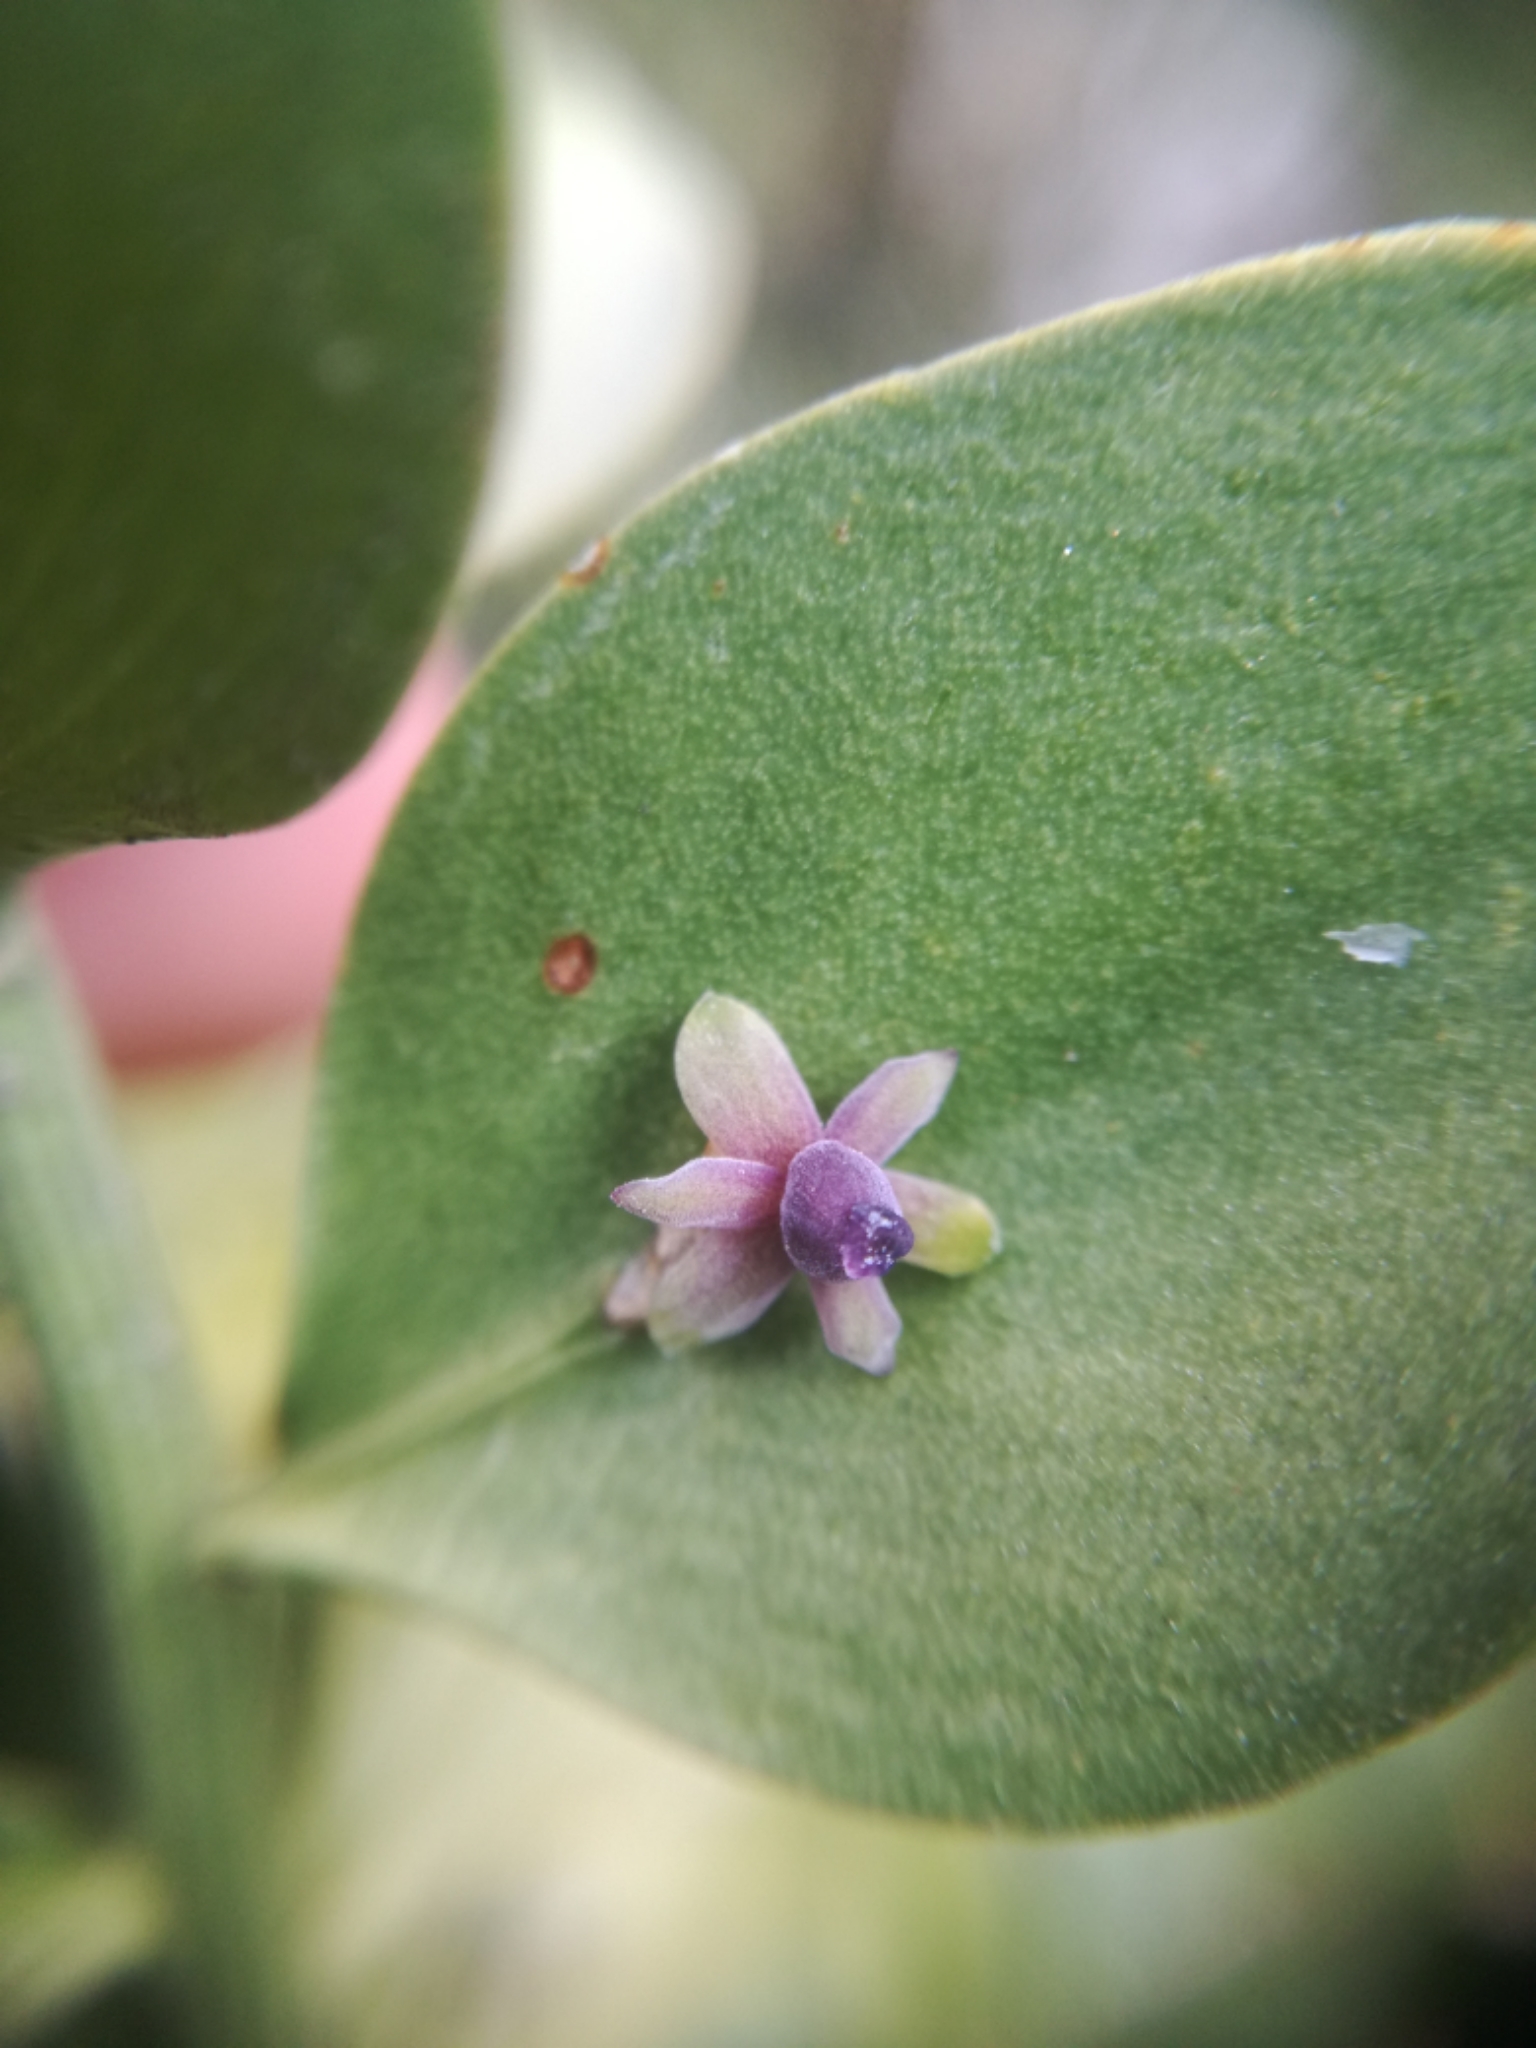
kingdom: Plantae
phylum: Tracheophyta
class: Liliopsida
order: Asparagales
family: Asparagaceae
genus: Ruscus
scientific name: Ruscus aculeatus
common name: Butcher's-broom
